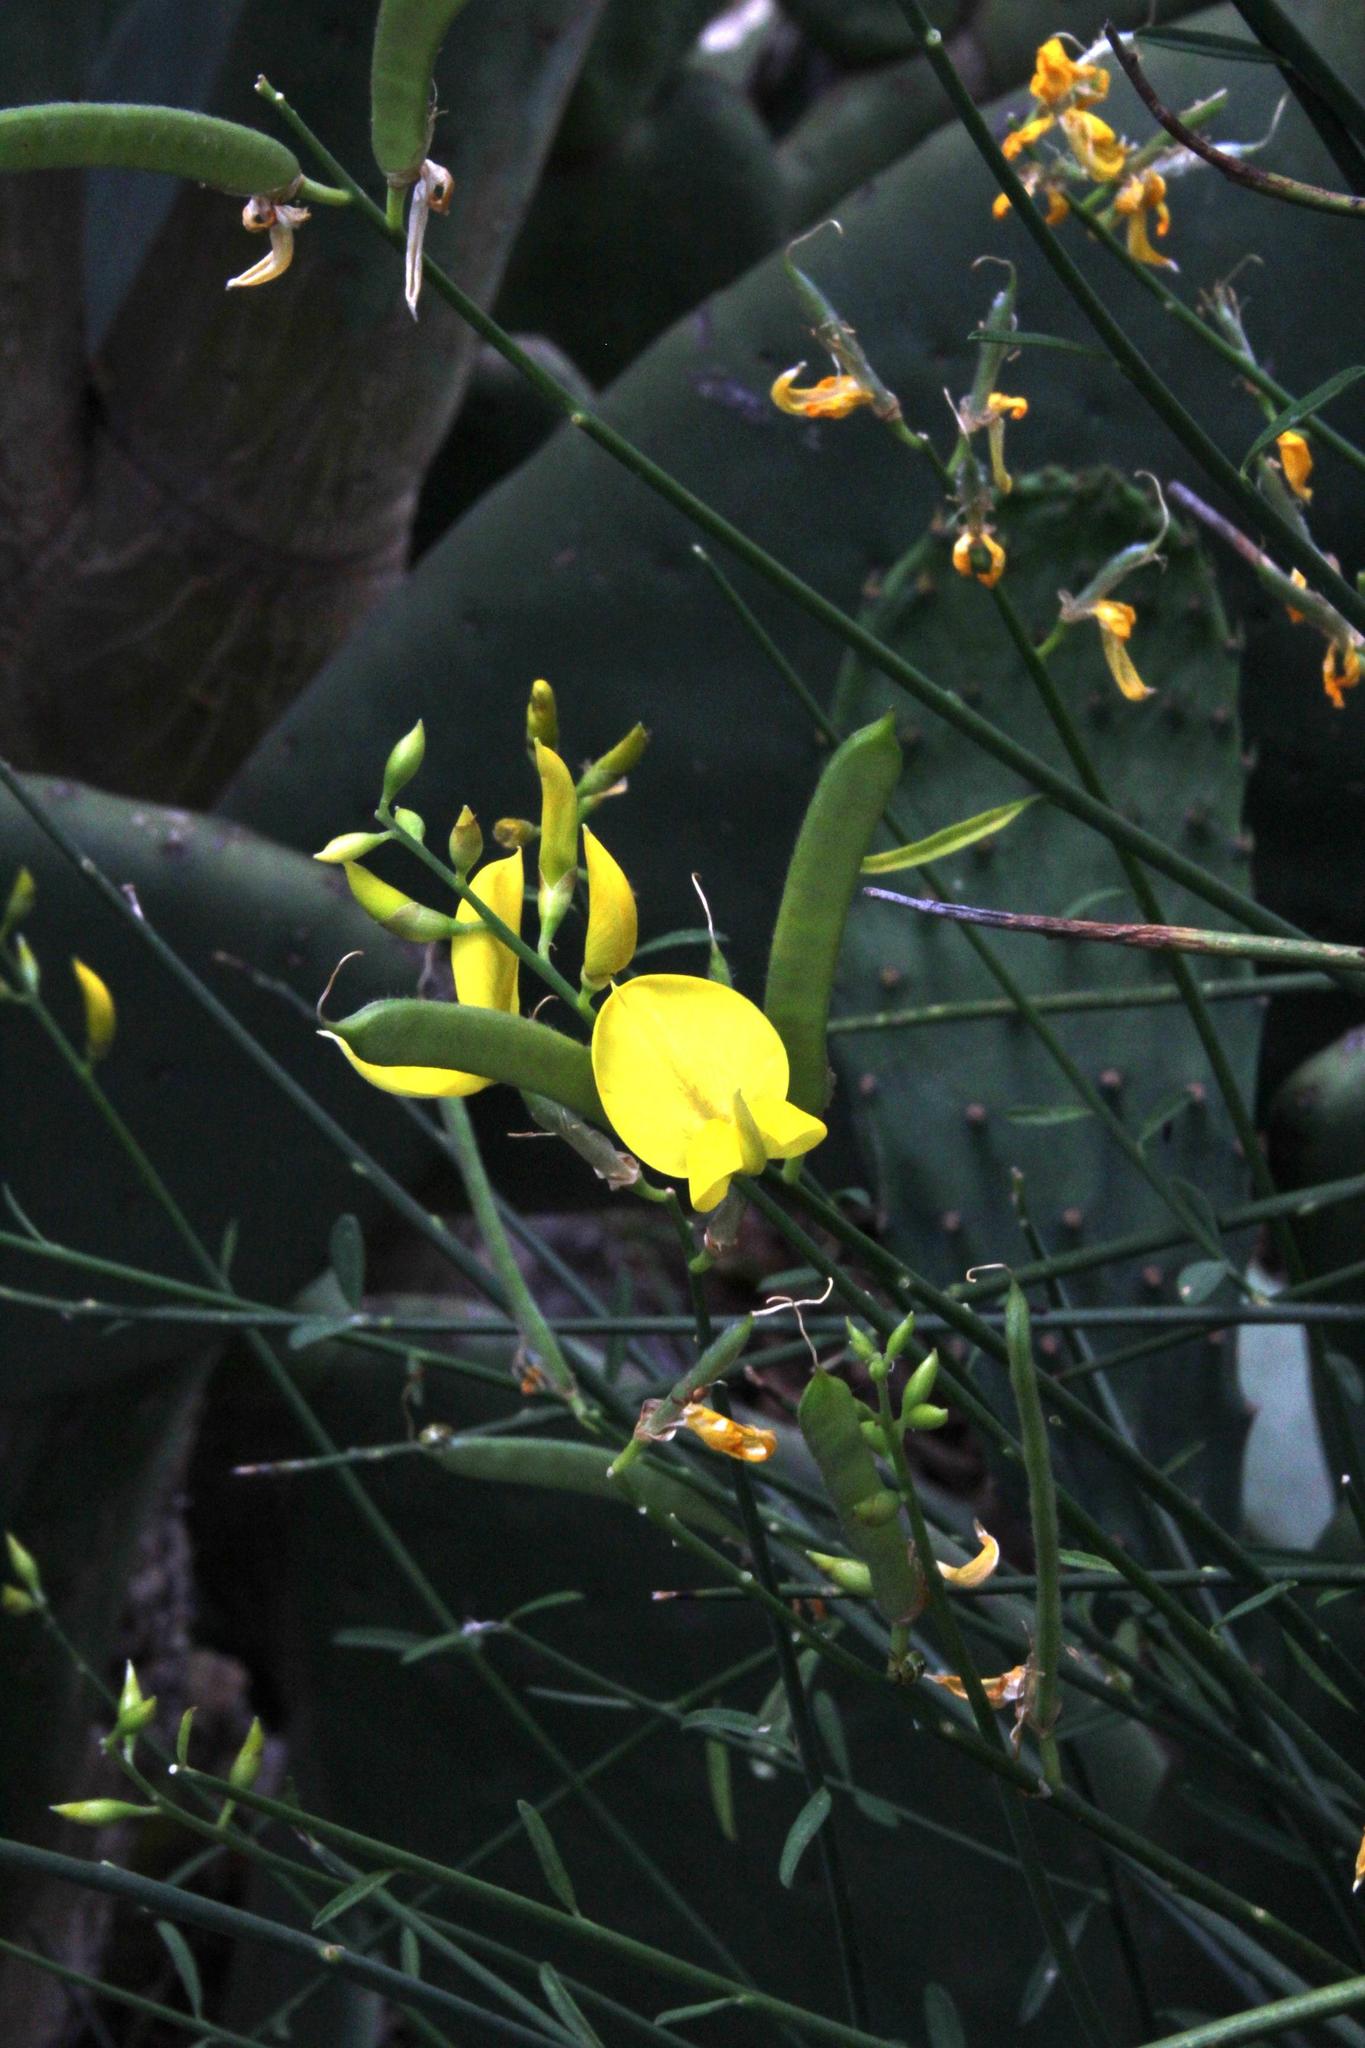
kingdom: Plantae
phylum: Tracheophyta
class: Magnoliopsida
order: Fabales
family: Fabaceae
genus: Spartium
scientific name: Spartium junceum
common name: Spanish broom
